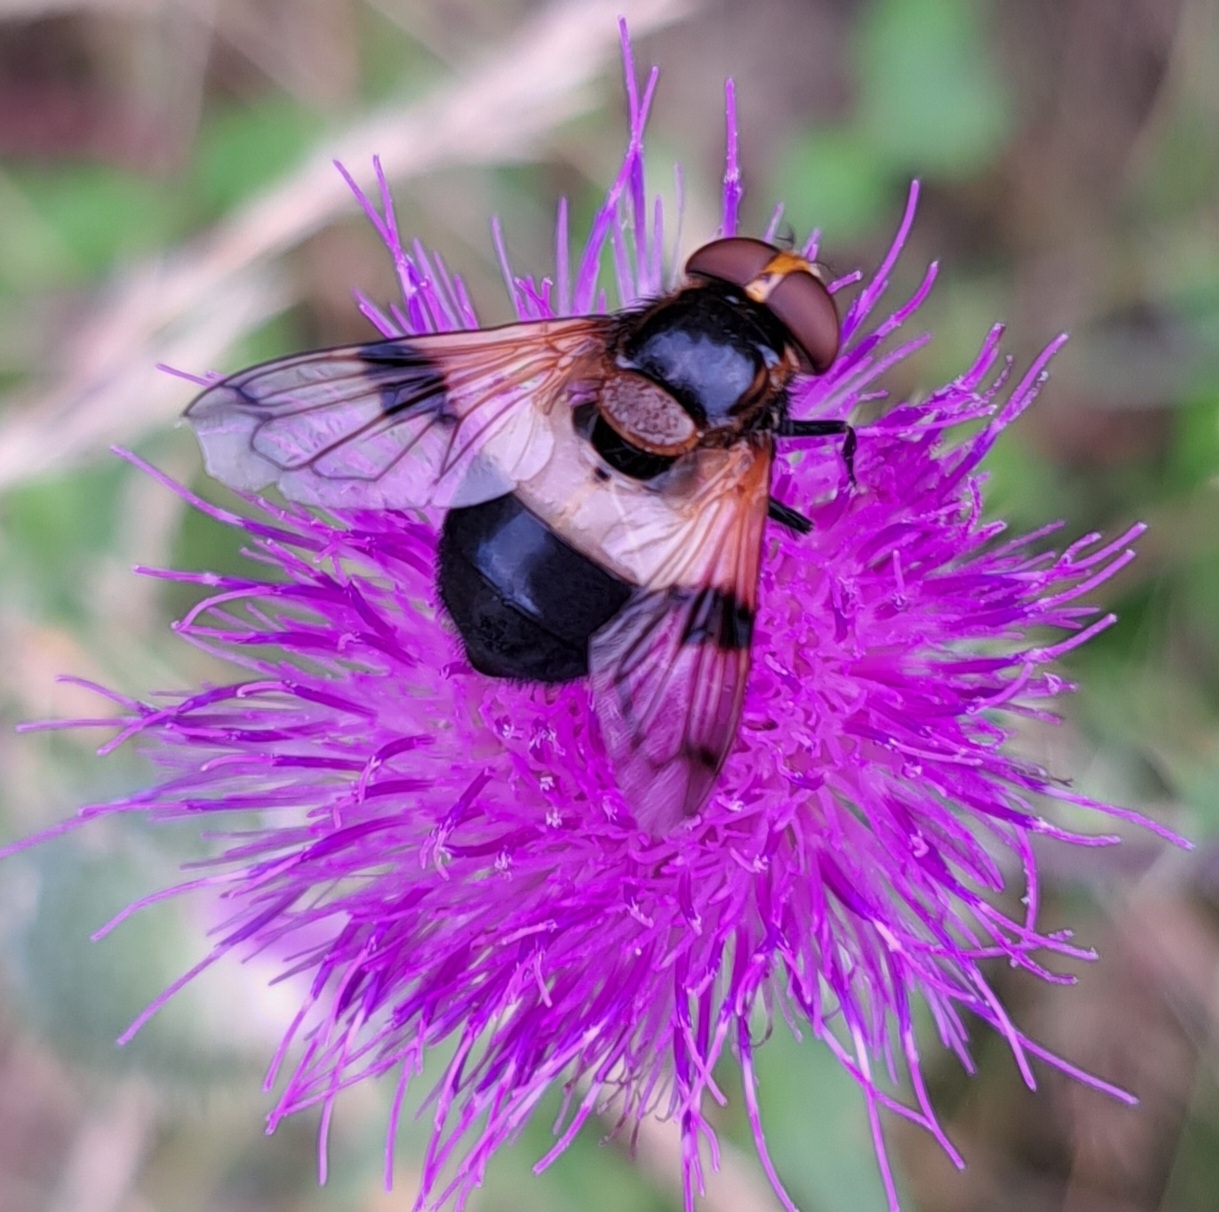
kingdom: Animalia
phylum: Arthropoda
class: Insecta
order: Diptera
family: Syrphidae
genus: Volucella
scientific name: Volucella pellucens
